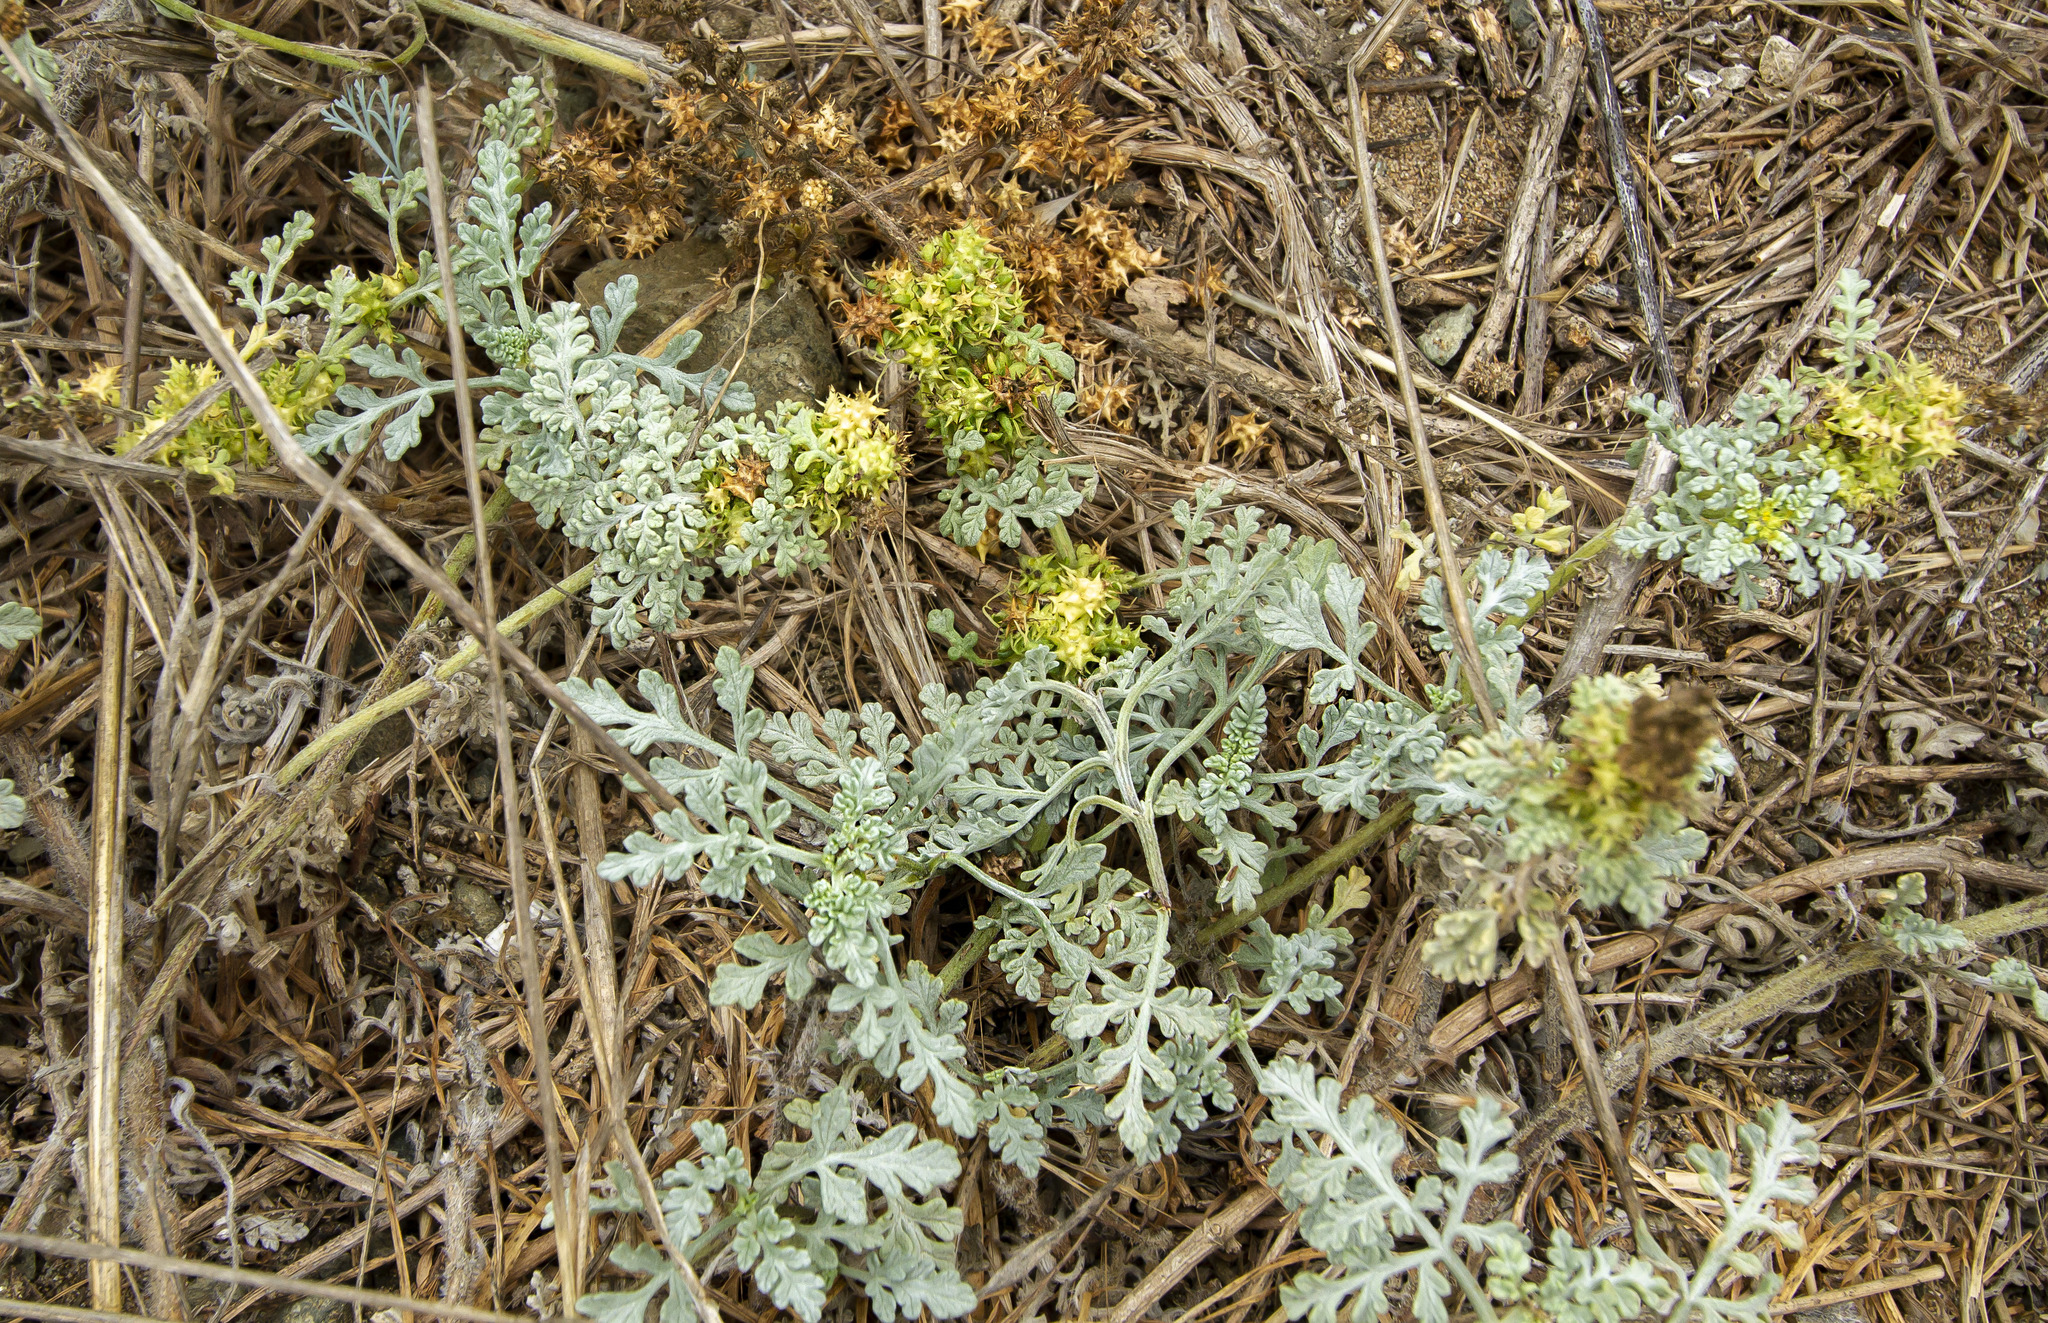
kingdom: Plantae
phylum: Tracheophyta
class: Magnoliopsida
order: Asterales
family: Asteraceae
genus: Ambrosia
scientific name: Ambrosia chamissonis
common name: Beachbur
